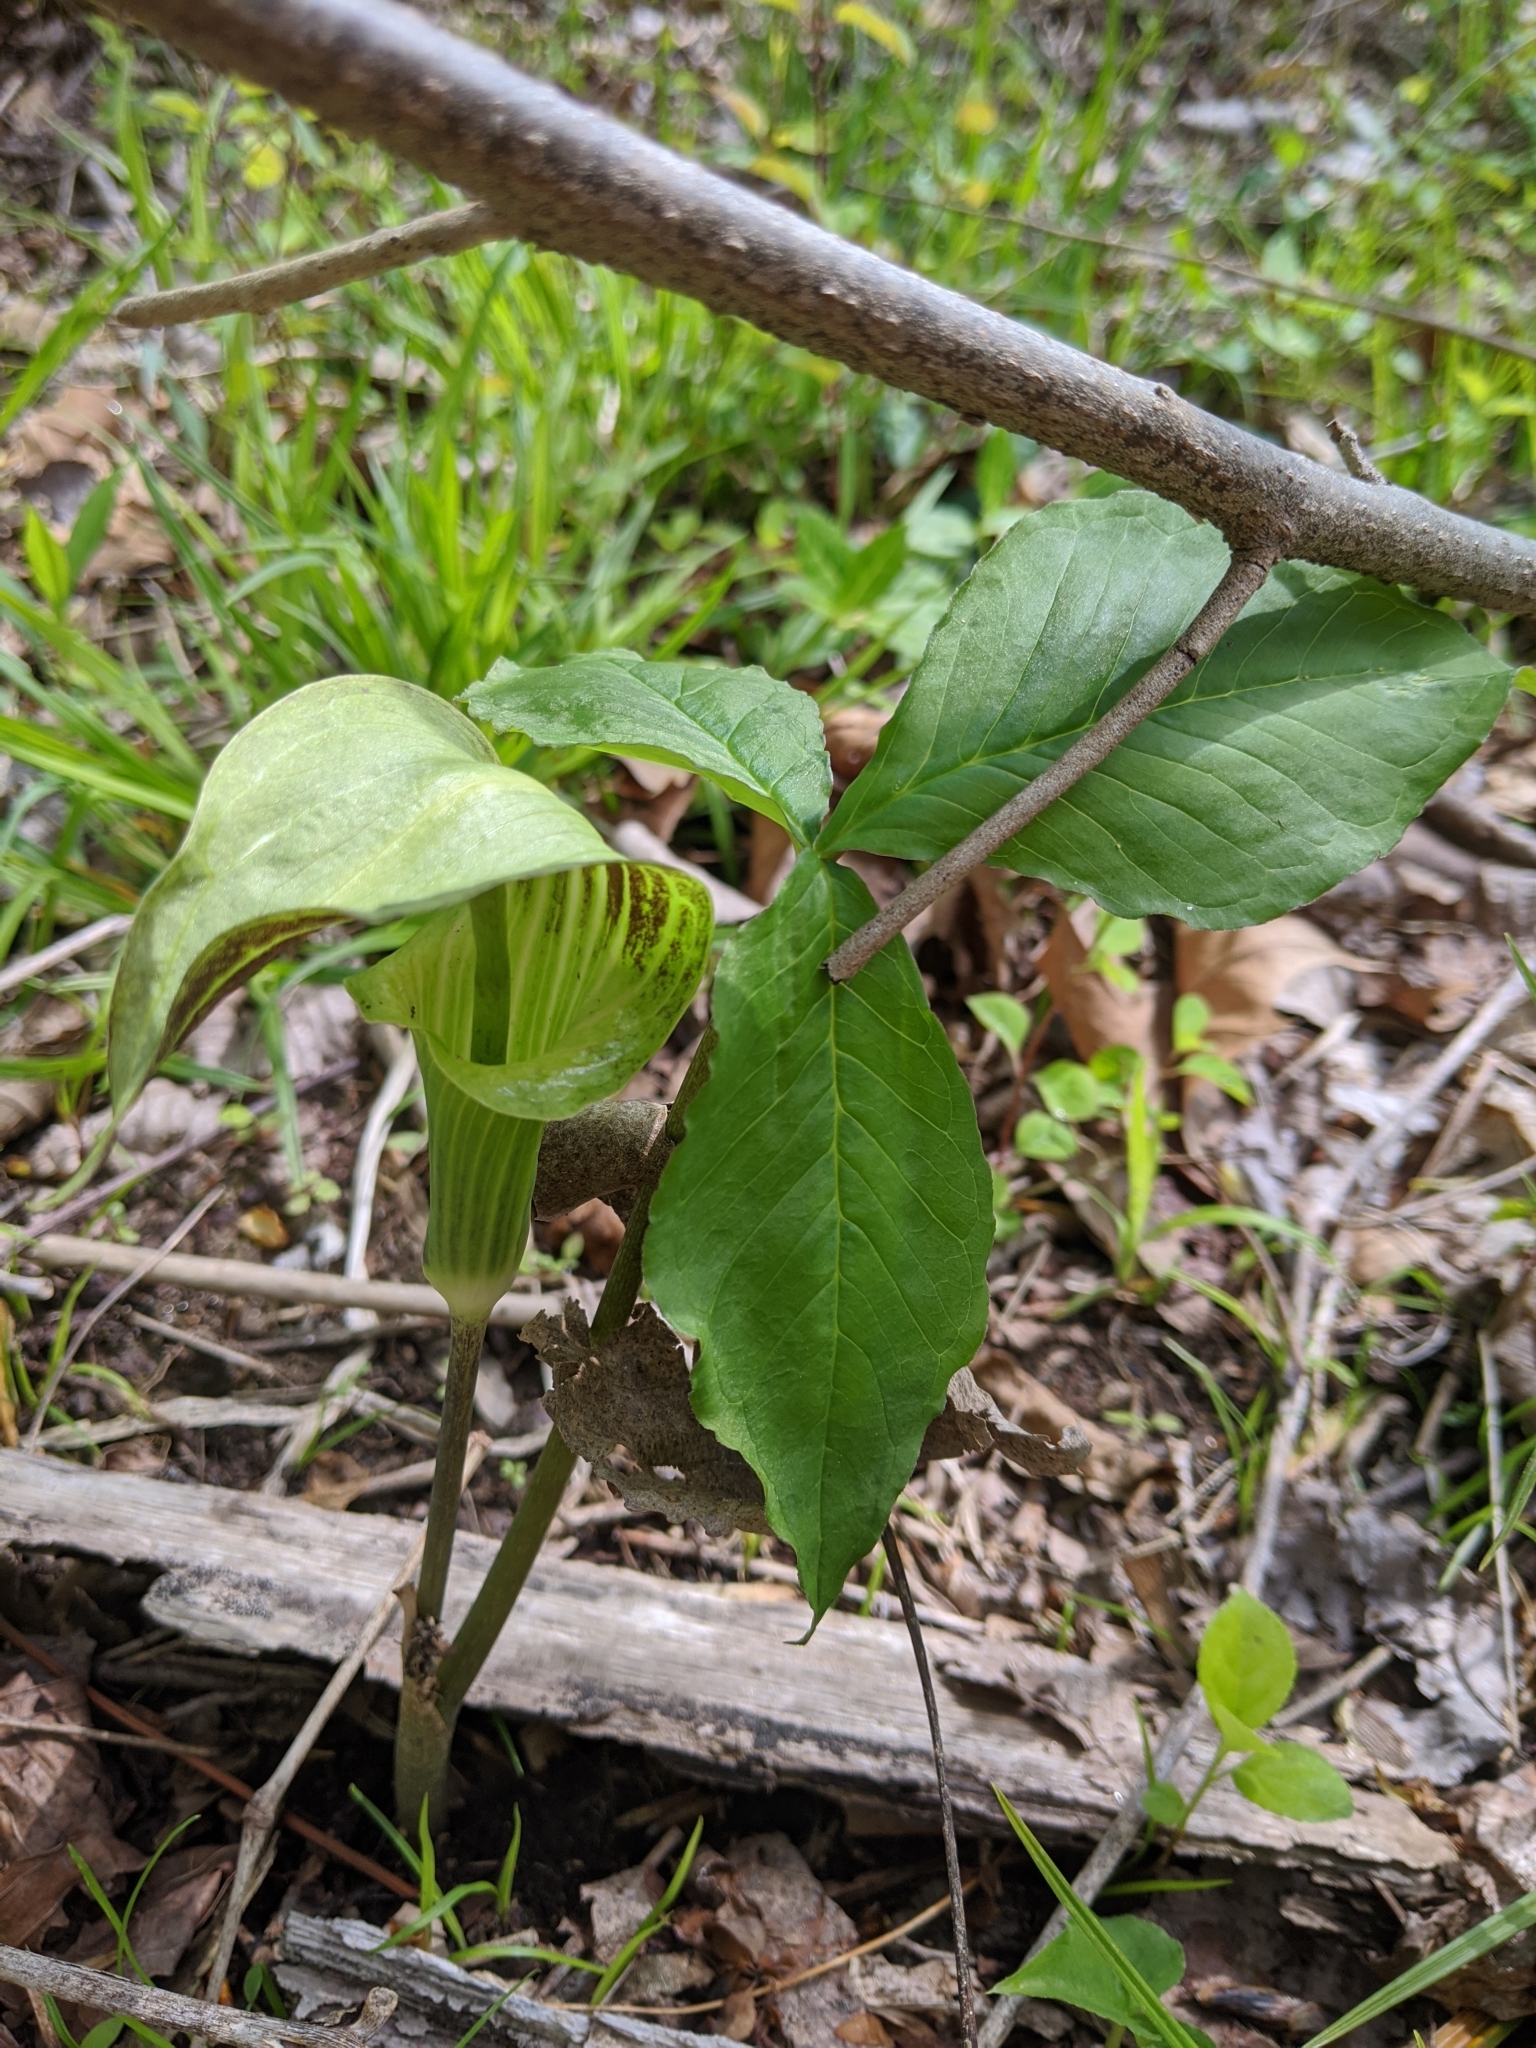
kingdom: Plantae
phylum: Tracheophyta
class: Liliopsida
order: Alismatales
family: Araceae
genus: Arisaema
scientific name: Arisaema triphyllum
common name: Jack-in-the-pulpit
